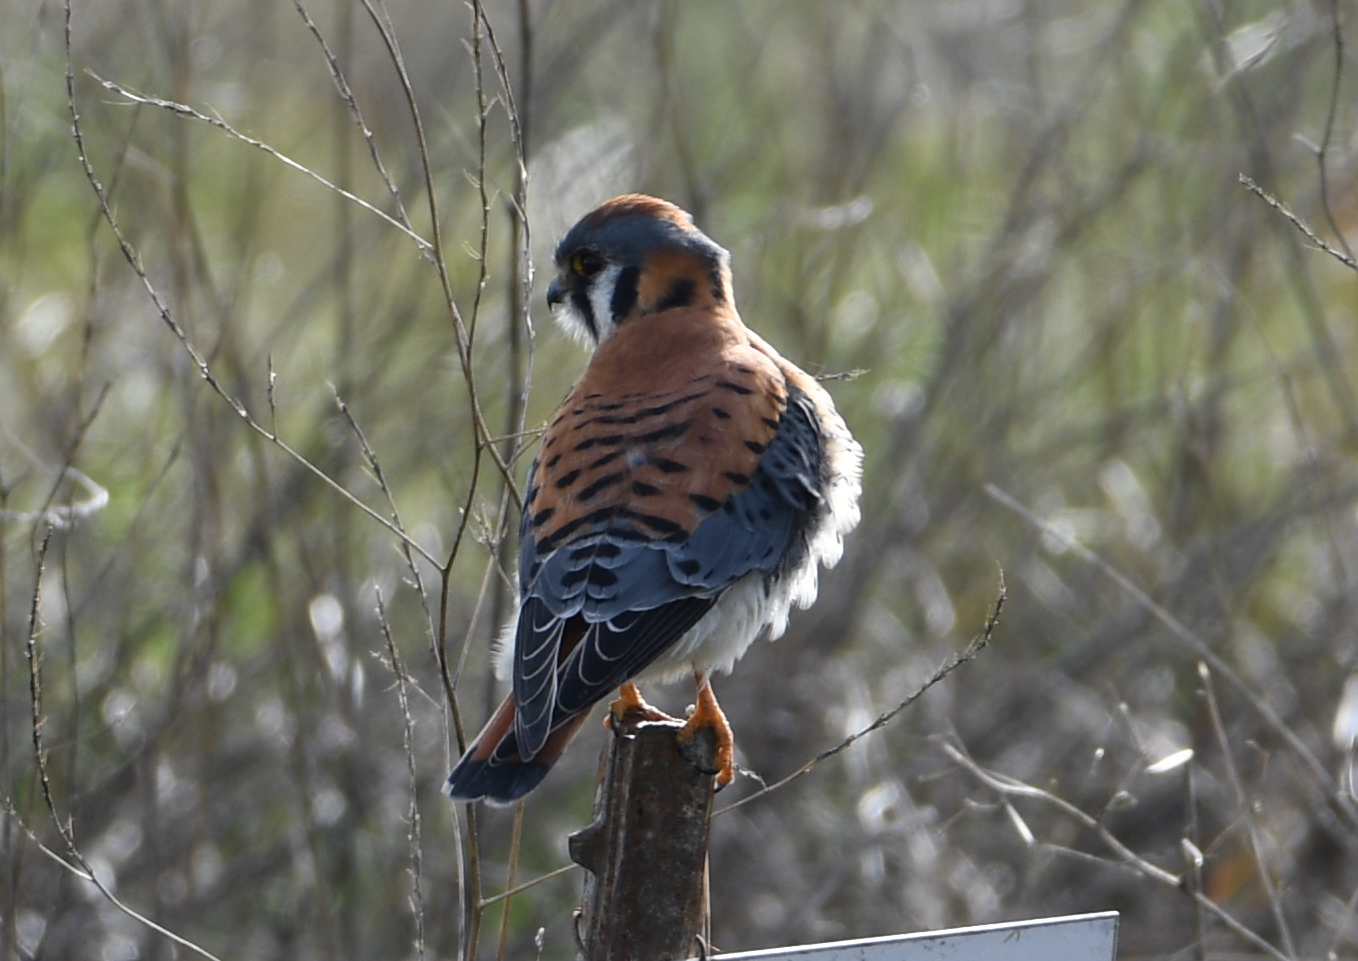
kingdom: Animalia
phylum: Chordata
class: Aves
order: Falconiformes
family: Falconidae
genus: Falco
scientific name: Falco sparverius
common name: American kestrel
